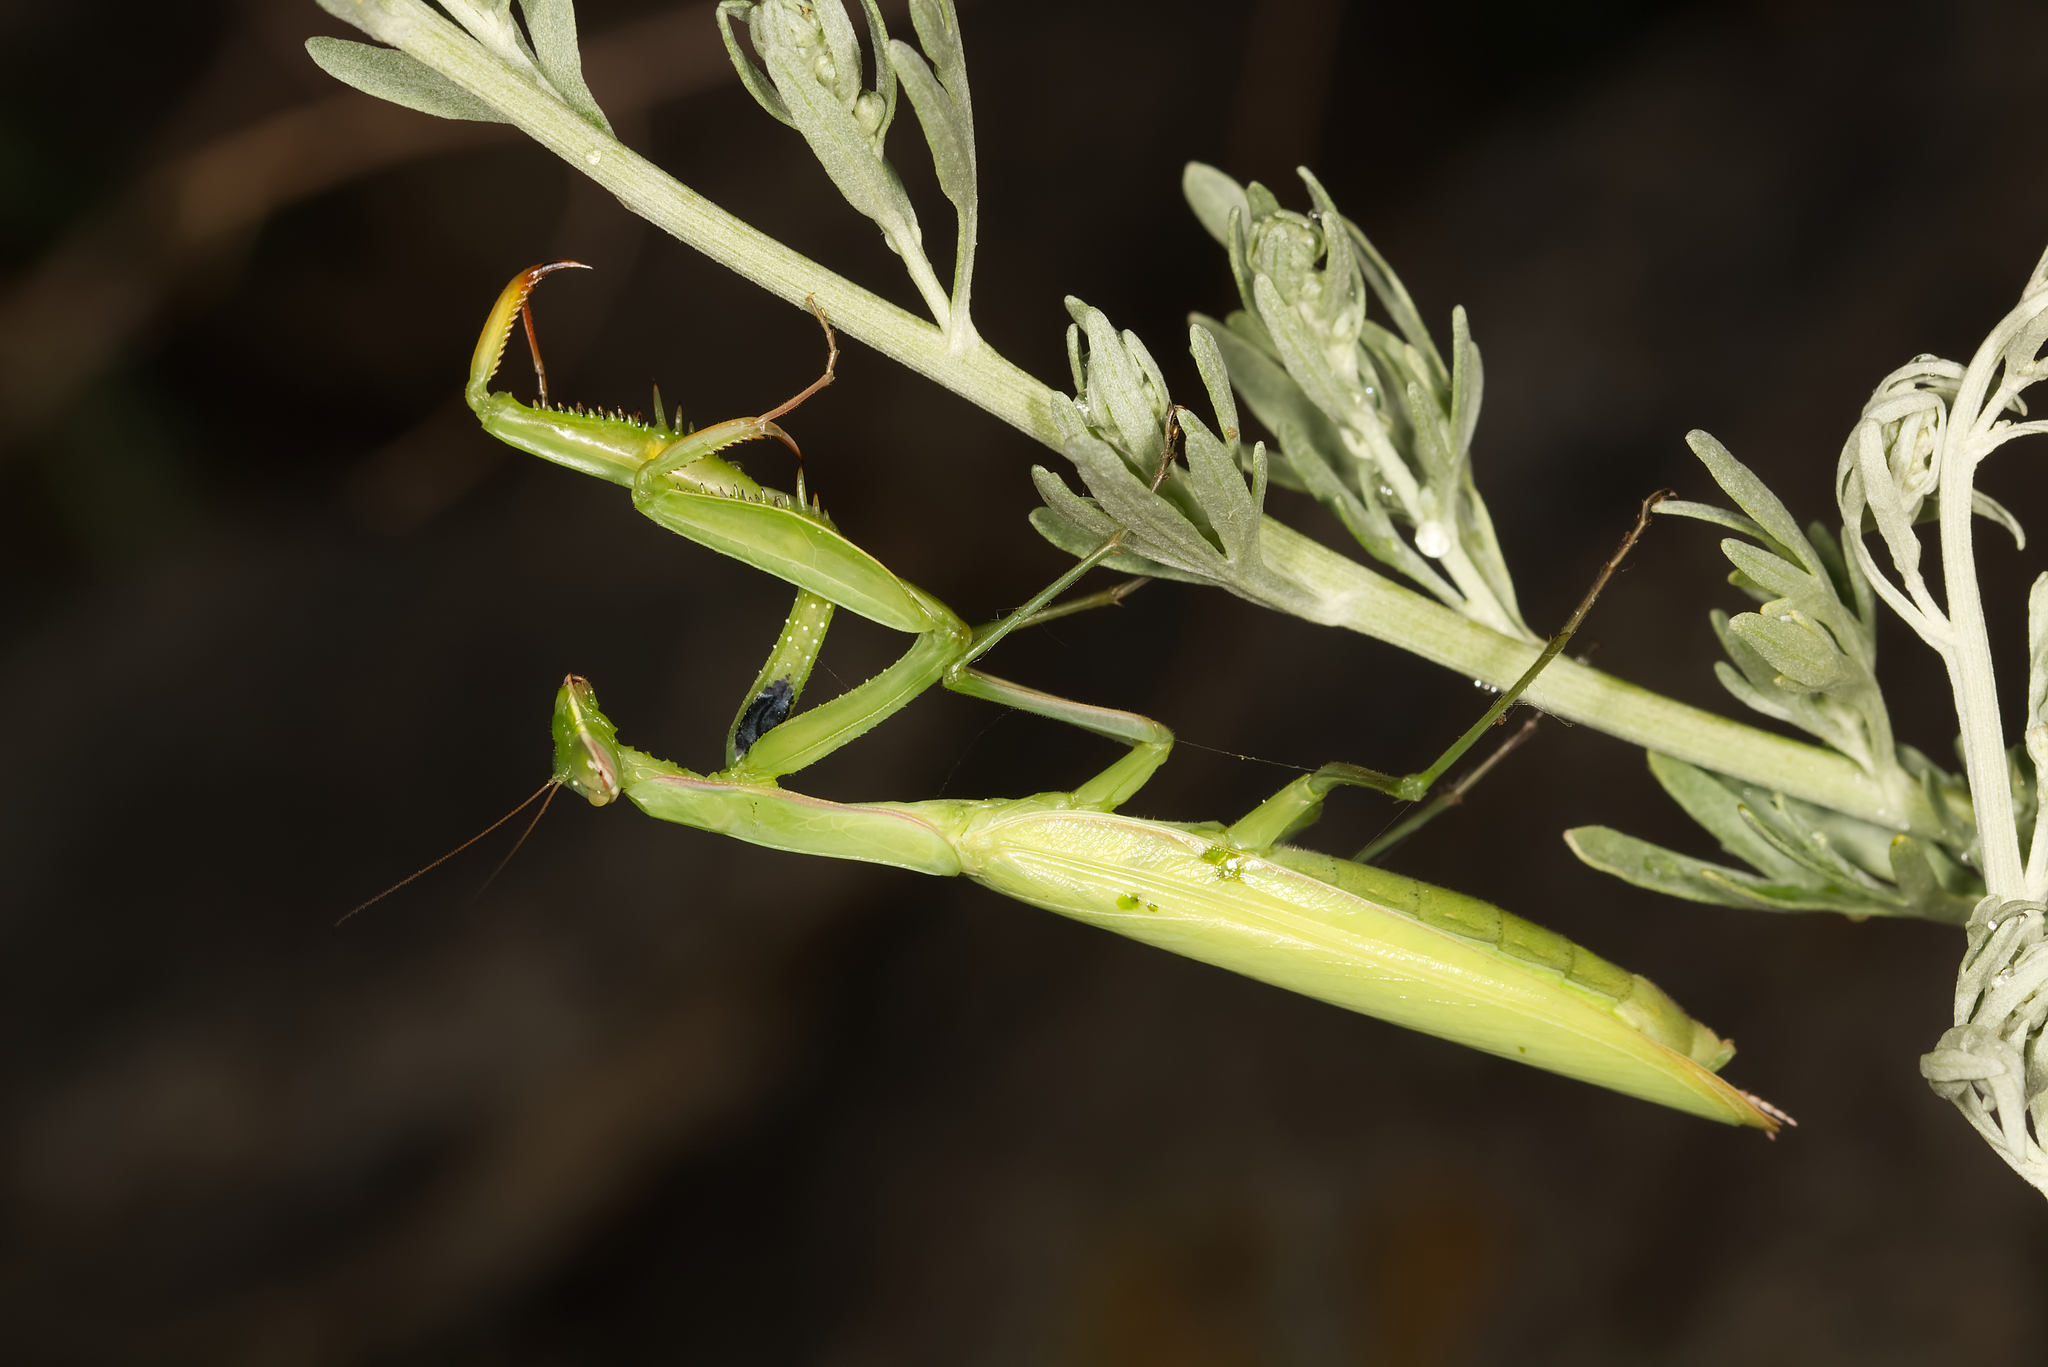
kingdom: Animalia
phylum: Arthropoda
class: Insecta
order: Mantodea
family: Mantidae
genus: Mantis
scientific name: Mantis religiosa
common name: Praying mantis
